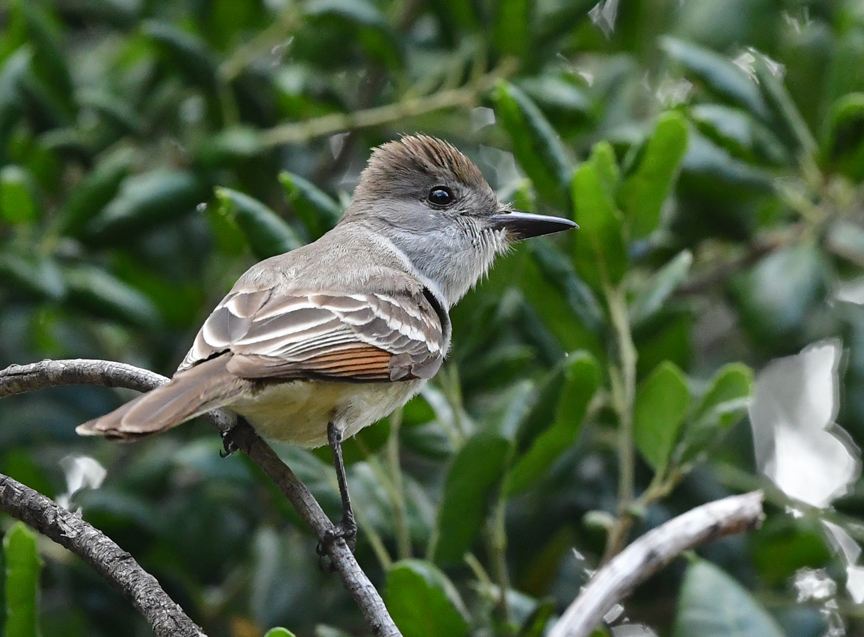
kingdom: Animalia
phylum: Chordata
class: Aves
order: Passeriformes
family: Tyrannidae
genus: Myiarchus
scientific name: Myiarchus cinerascens
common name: Ash-throated flycatcher
